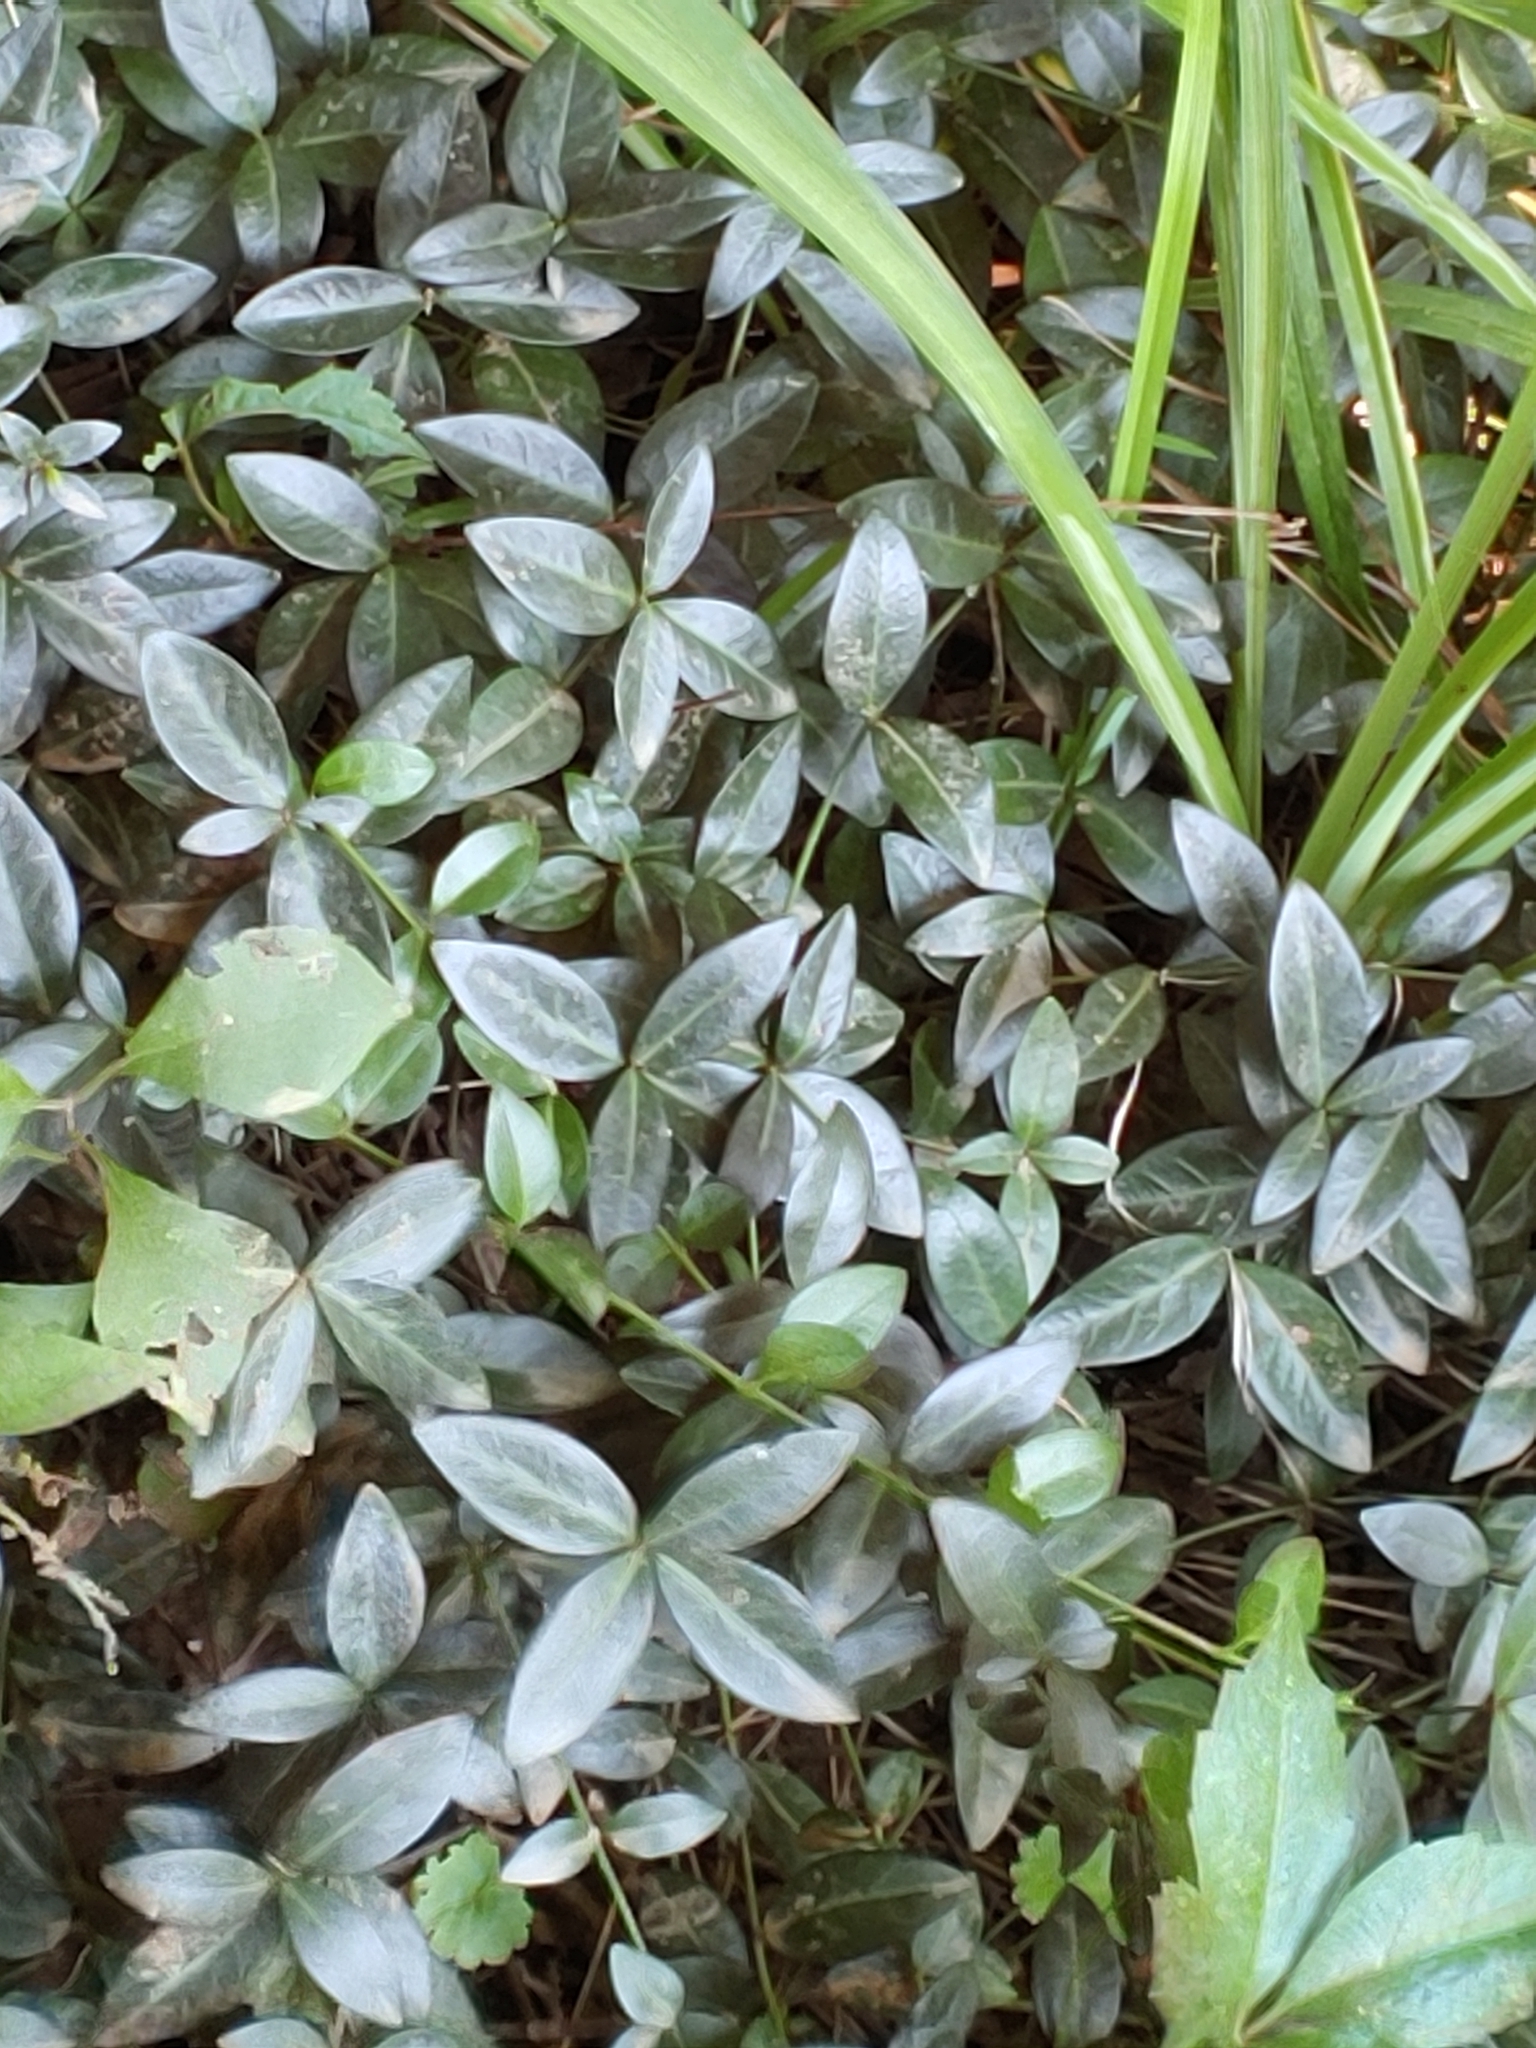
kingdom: Plantae
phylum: Tracheophyta
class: Magnoliopsida
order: Gentianales
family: Apocynaceae
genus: Vinca
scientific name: Vinca minor
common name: Lesser periwinkle
